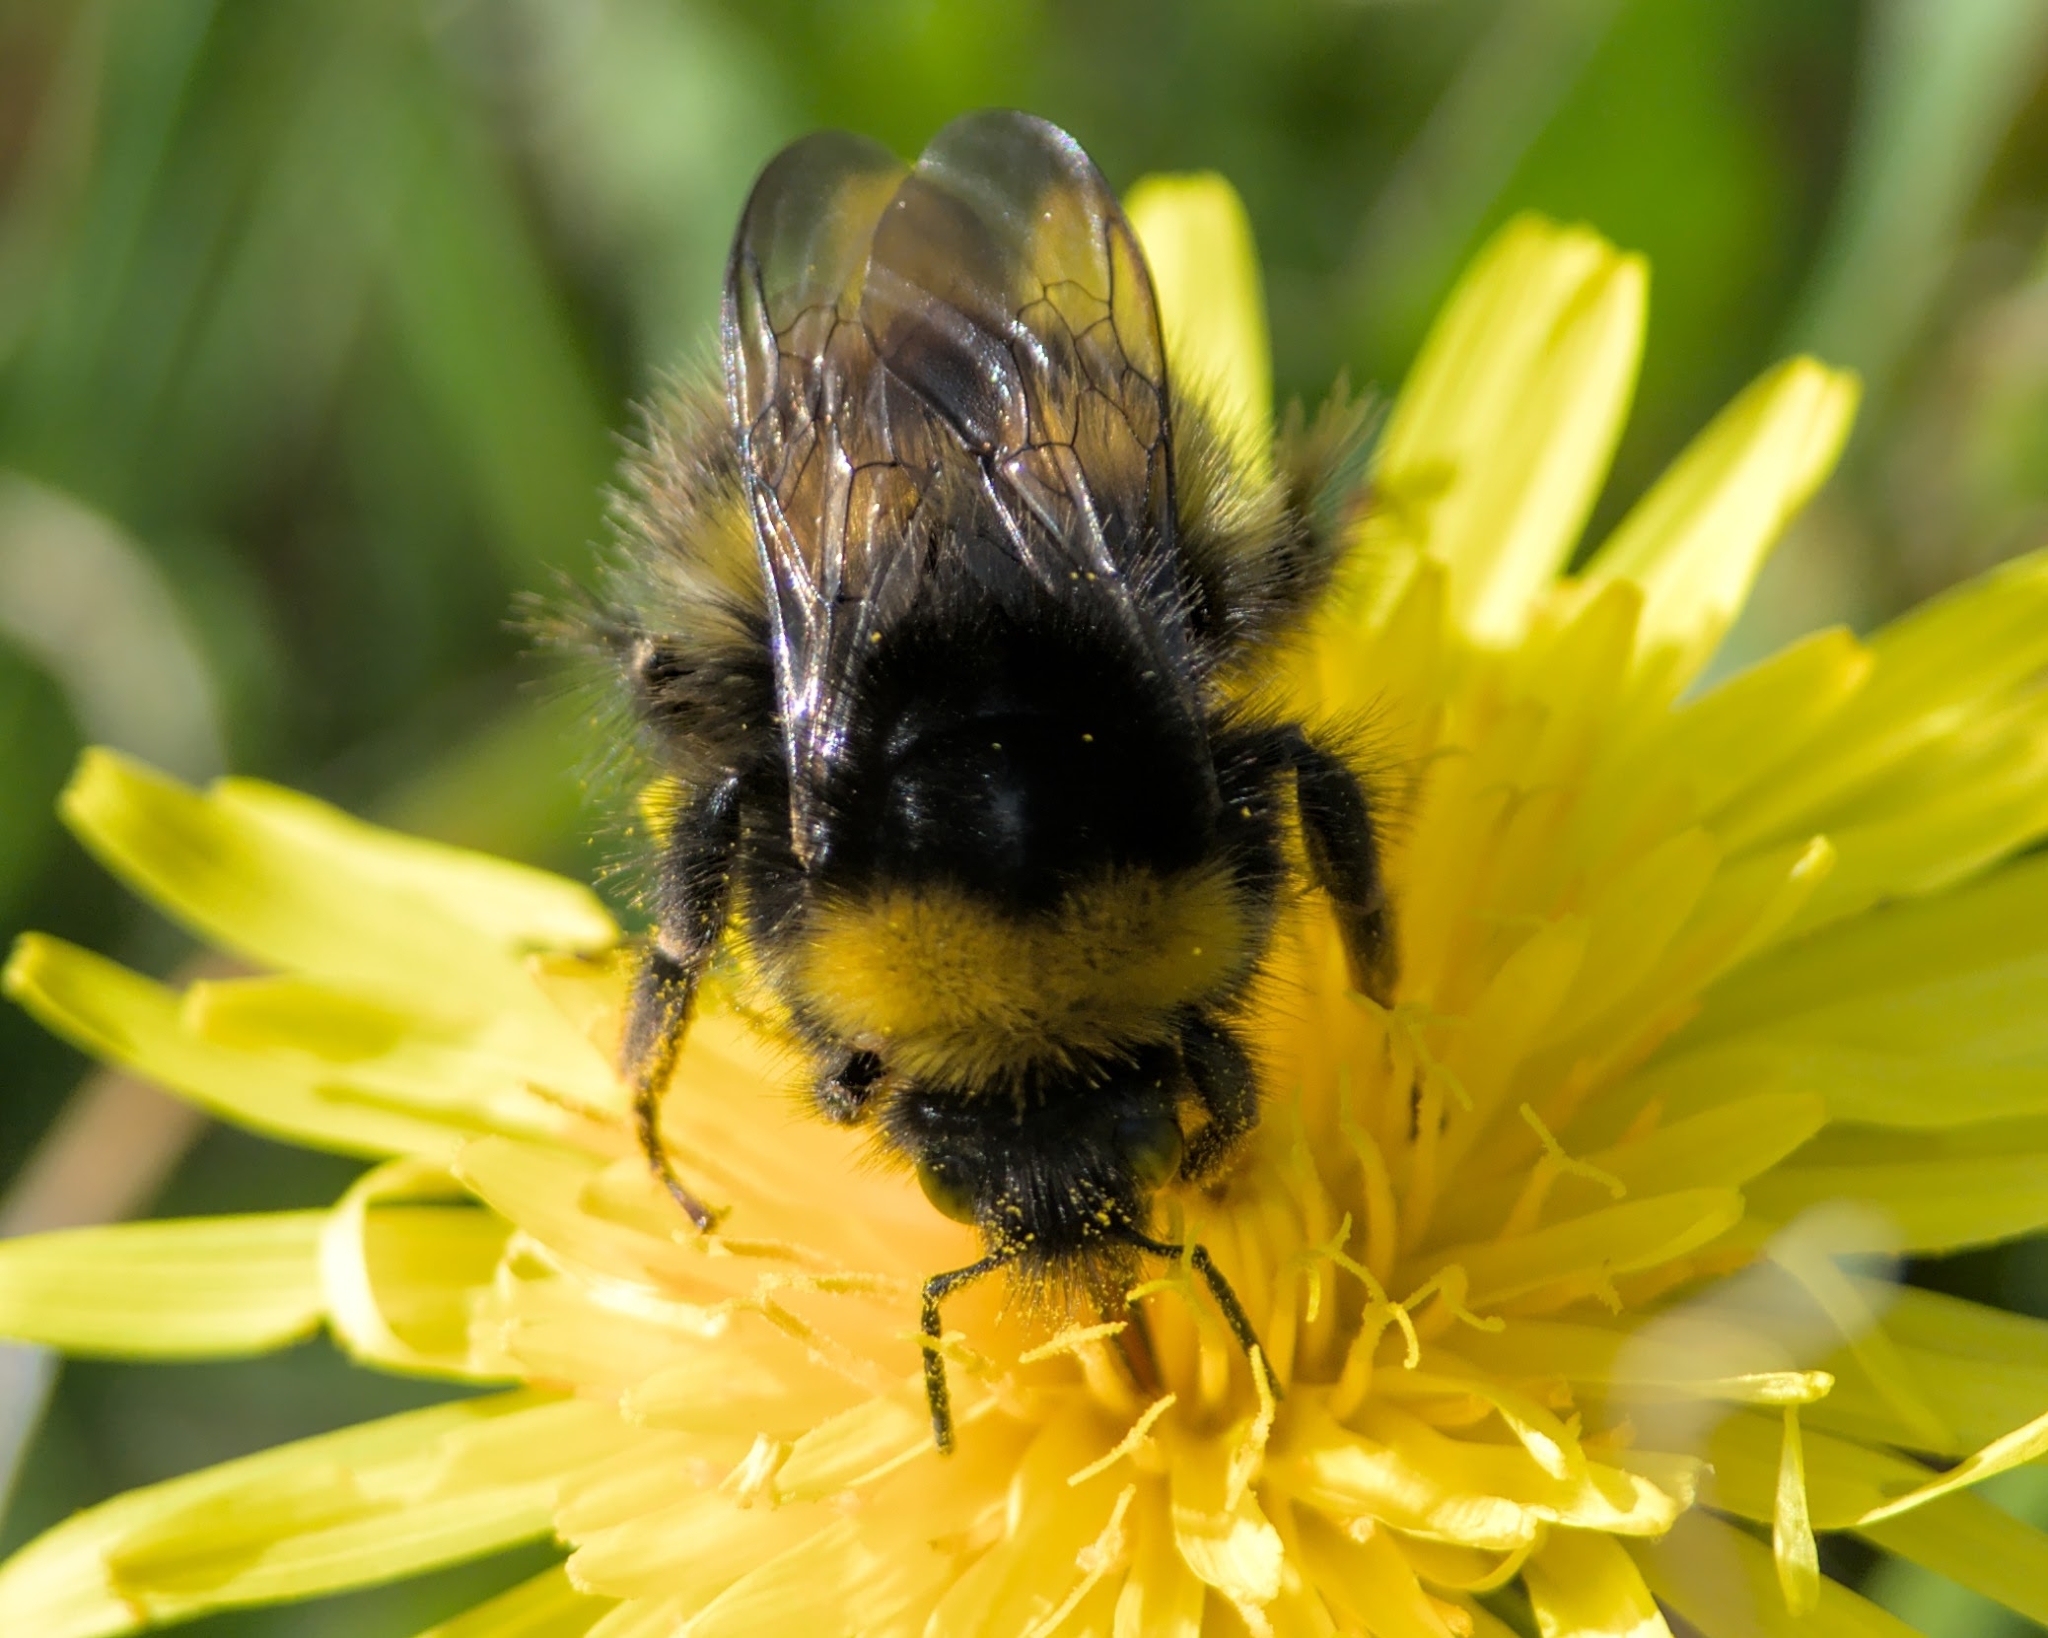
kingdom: Animalia
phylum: Arthropoda
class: Insecta
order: Hymenoptera
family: Apidae
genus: Bombus
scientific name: Bombus pratorum
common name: Early humble-bee
